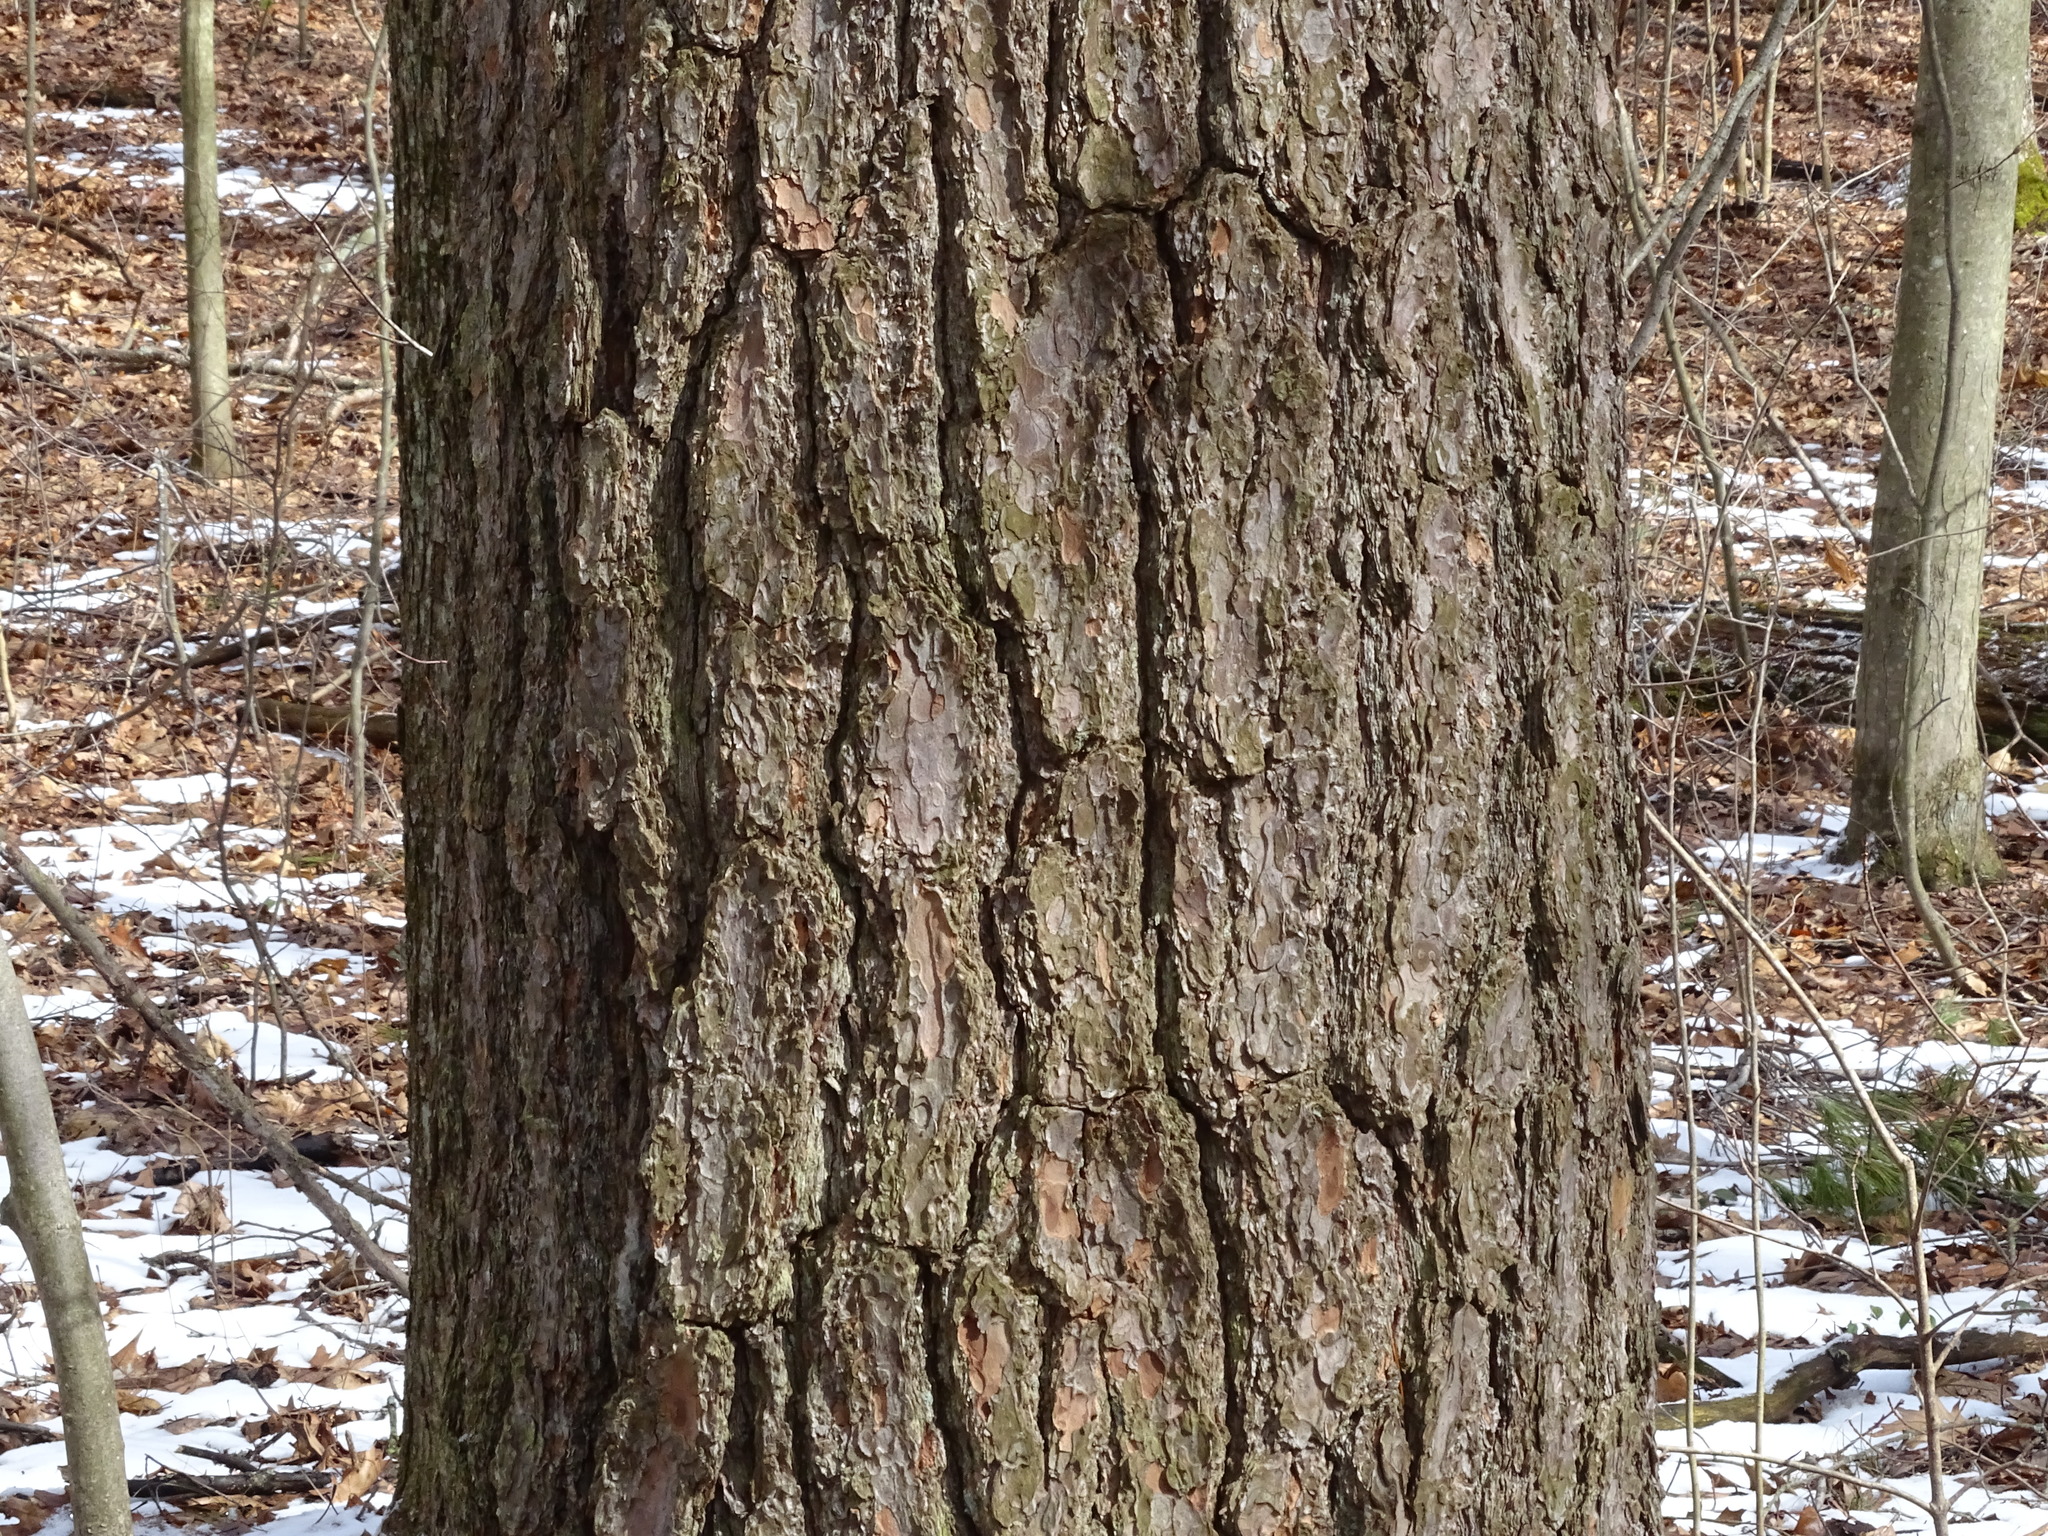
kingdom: Plantae
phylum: Tracheophyta
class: Pinopsida
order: Pinales
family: Pinaceae
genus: Pinus
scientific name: Pinus strobus
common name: Weymouth pine
